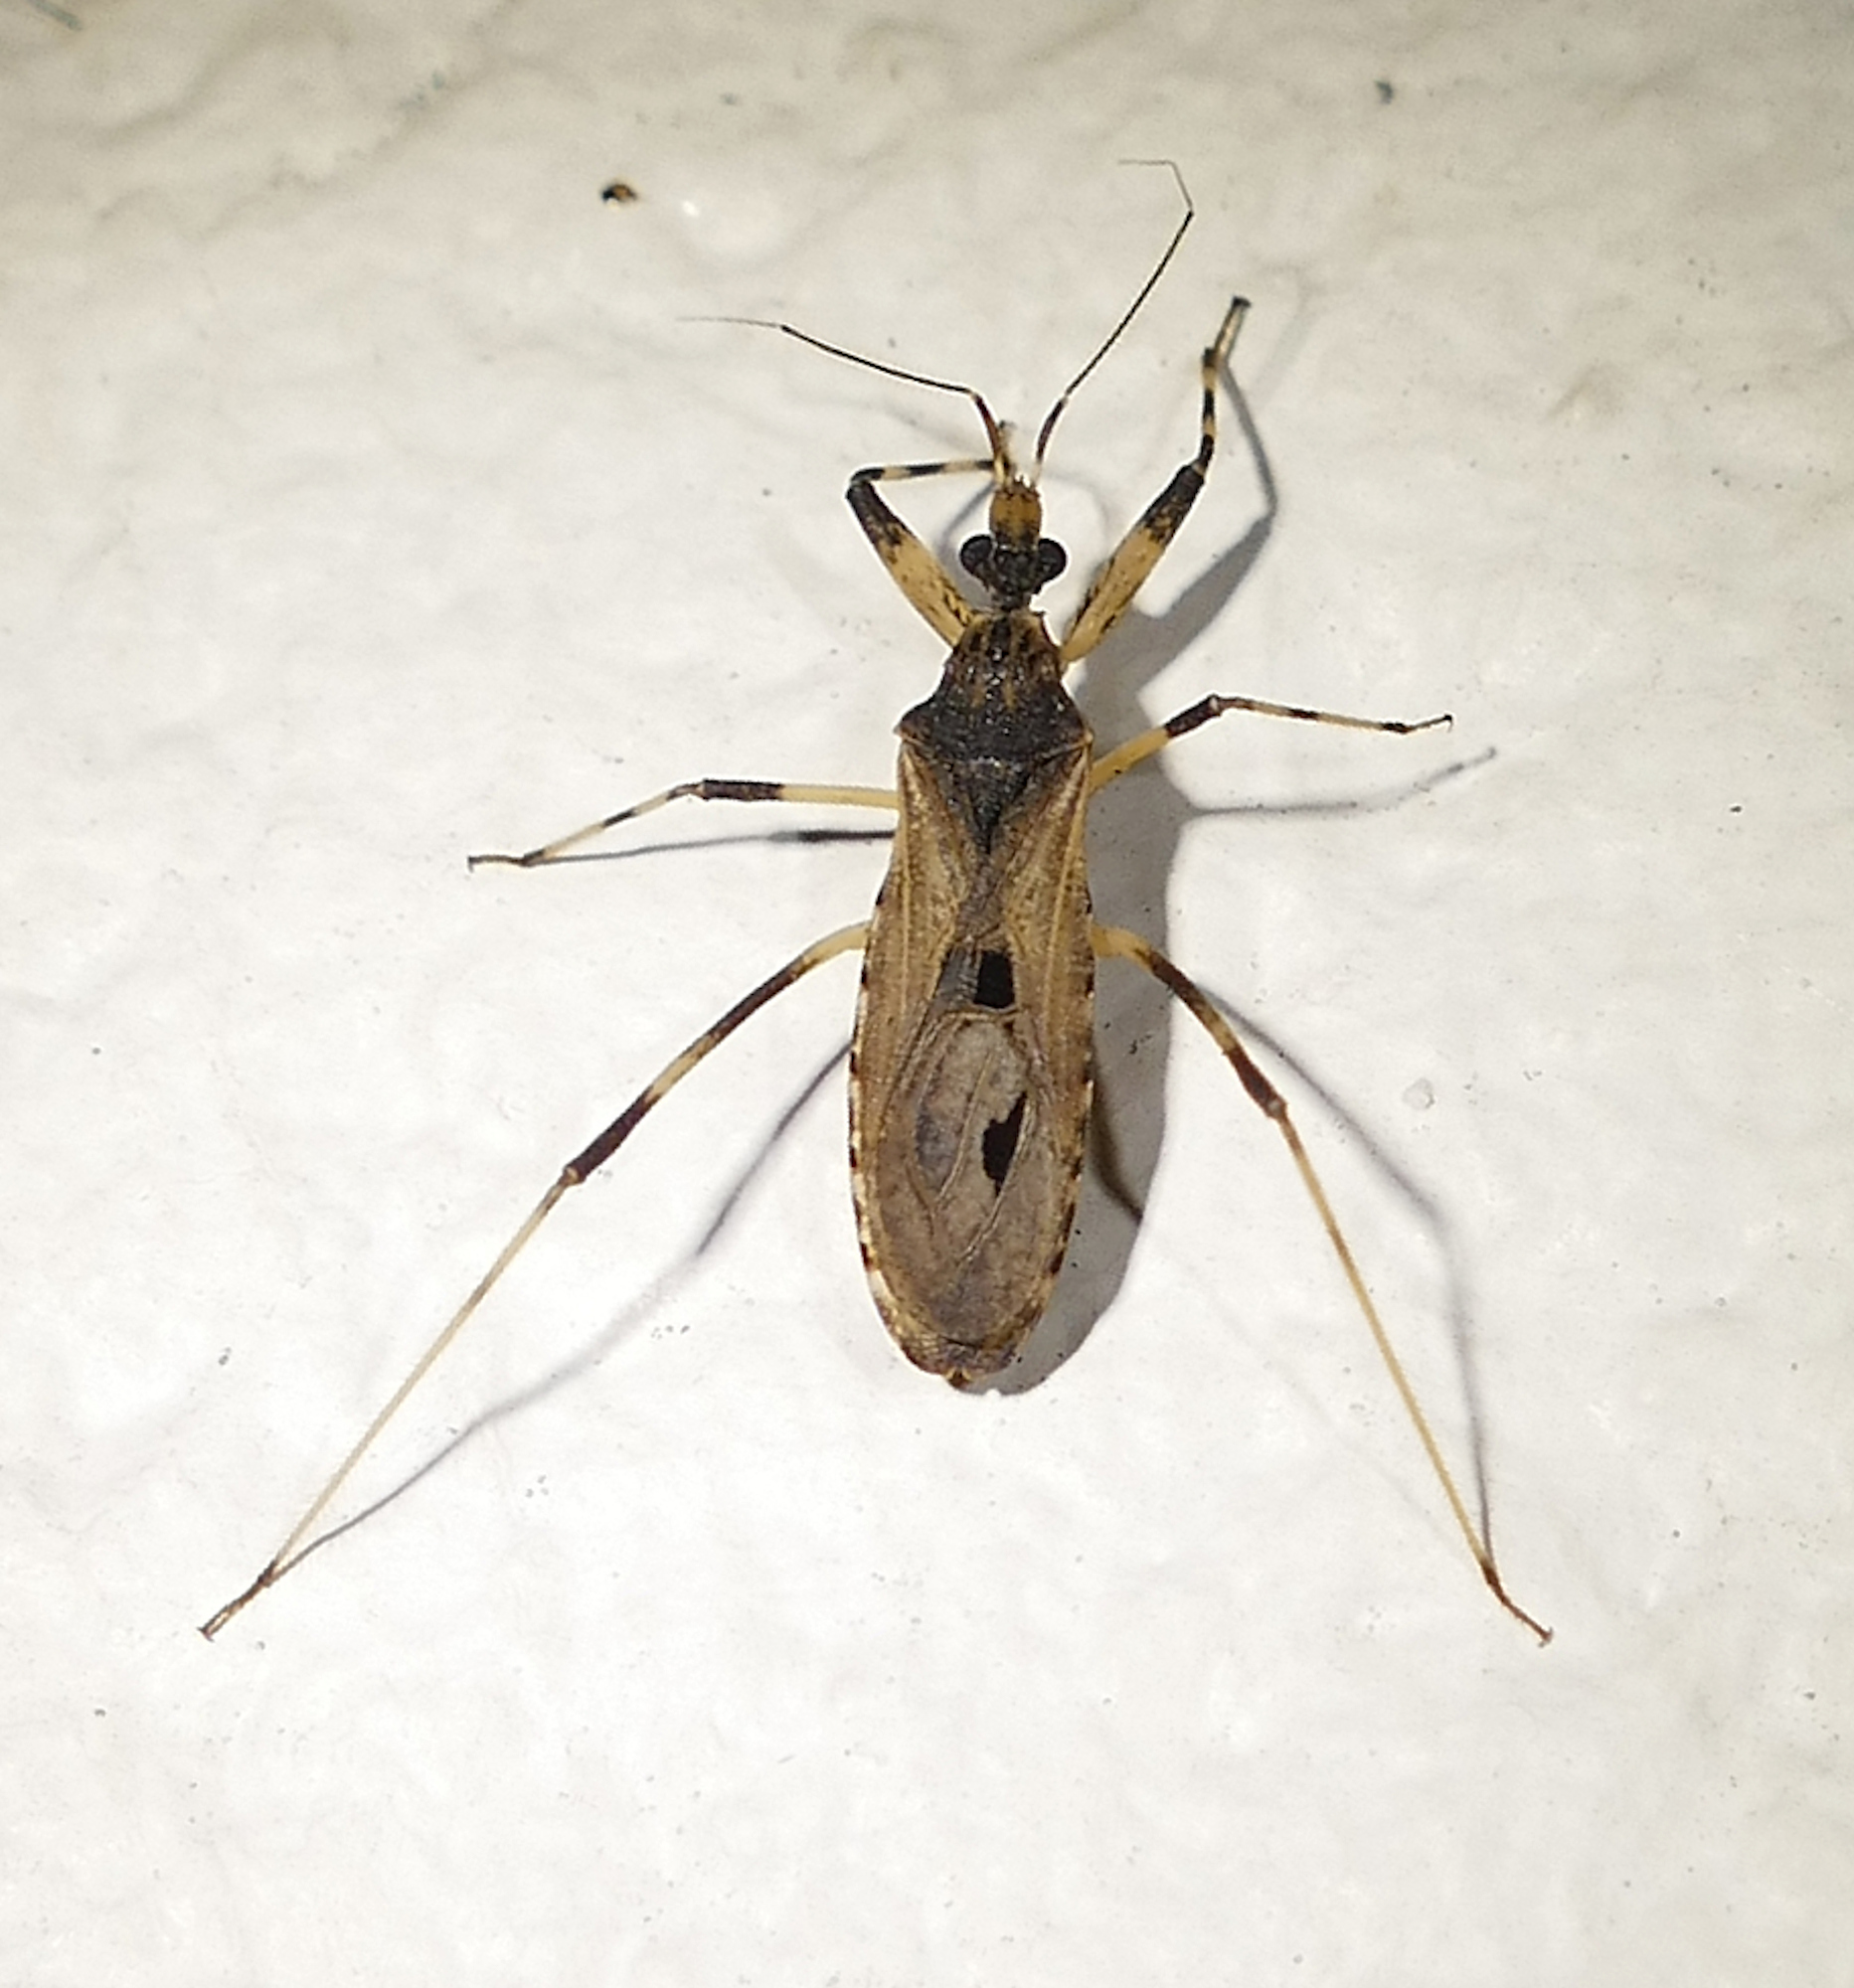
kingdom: Animalia
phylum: Arthropoda
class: Insecta
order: Hemiptera
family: Reduviidae
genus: Oncocephalus
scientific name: Oncocephalus geniculatus
